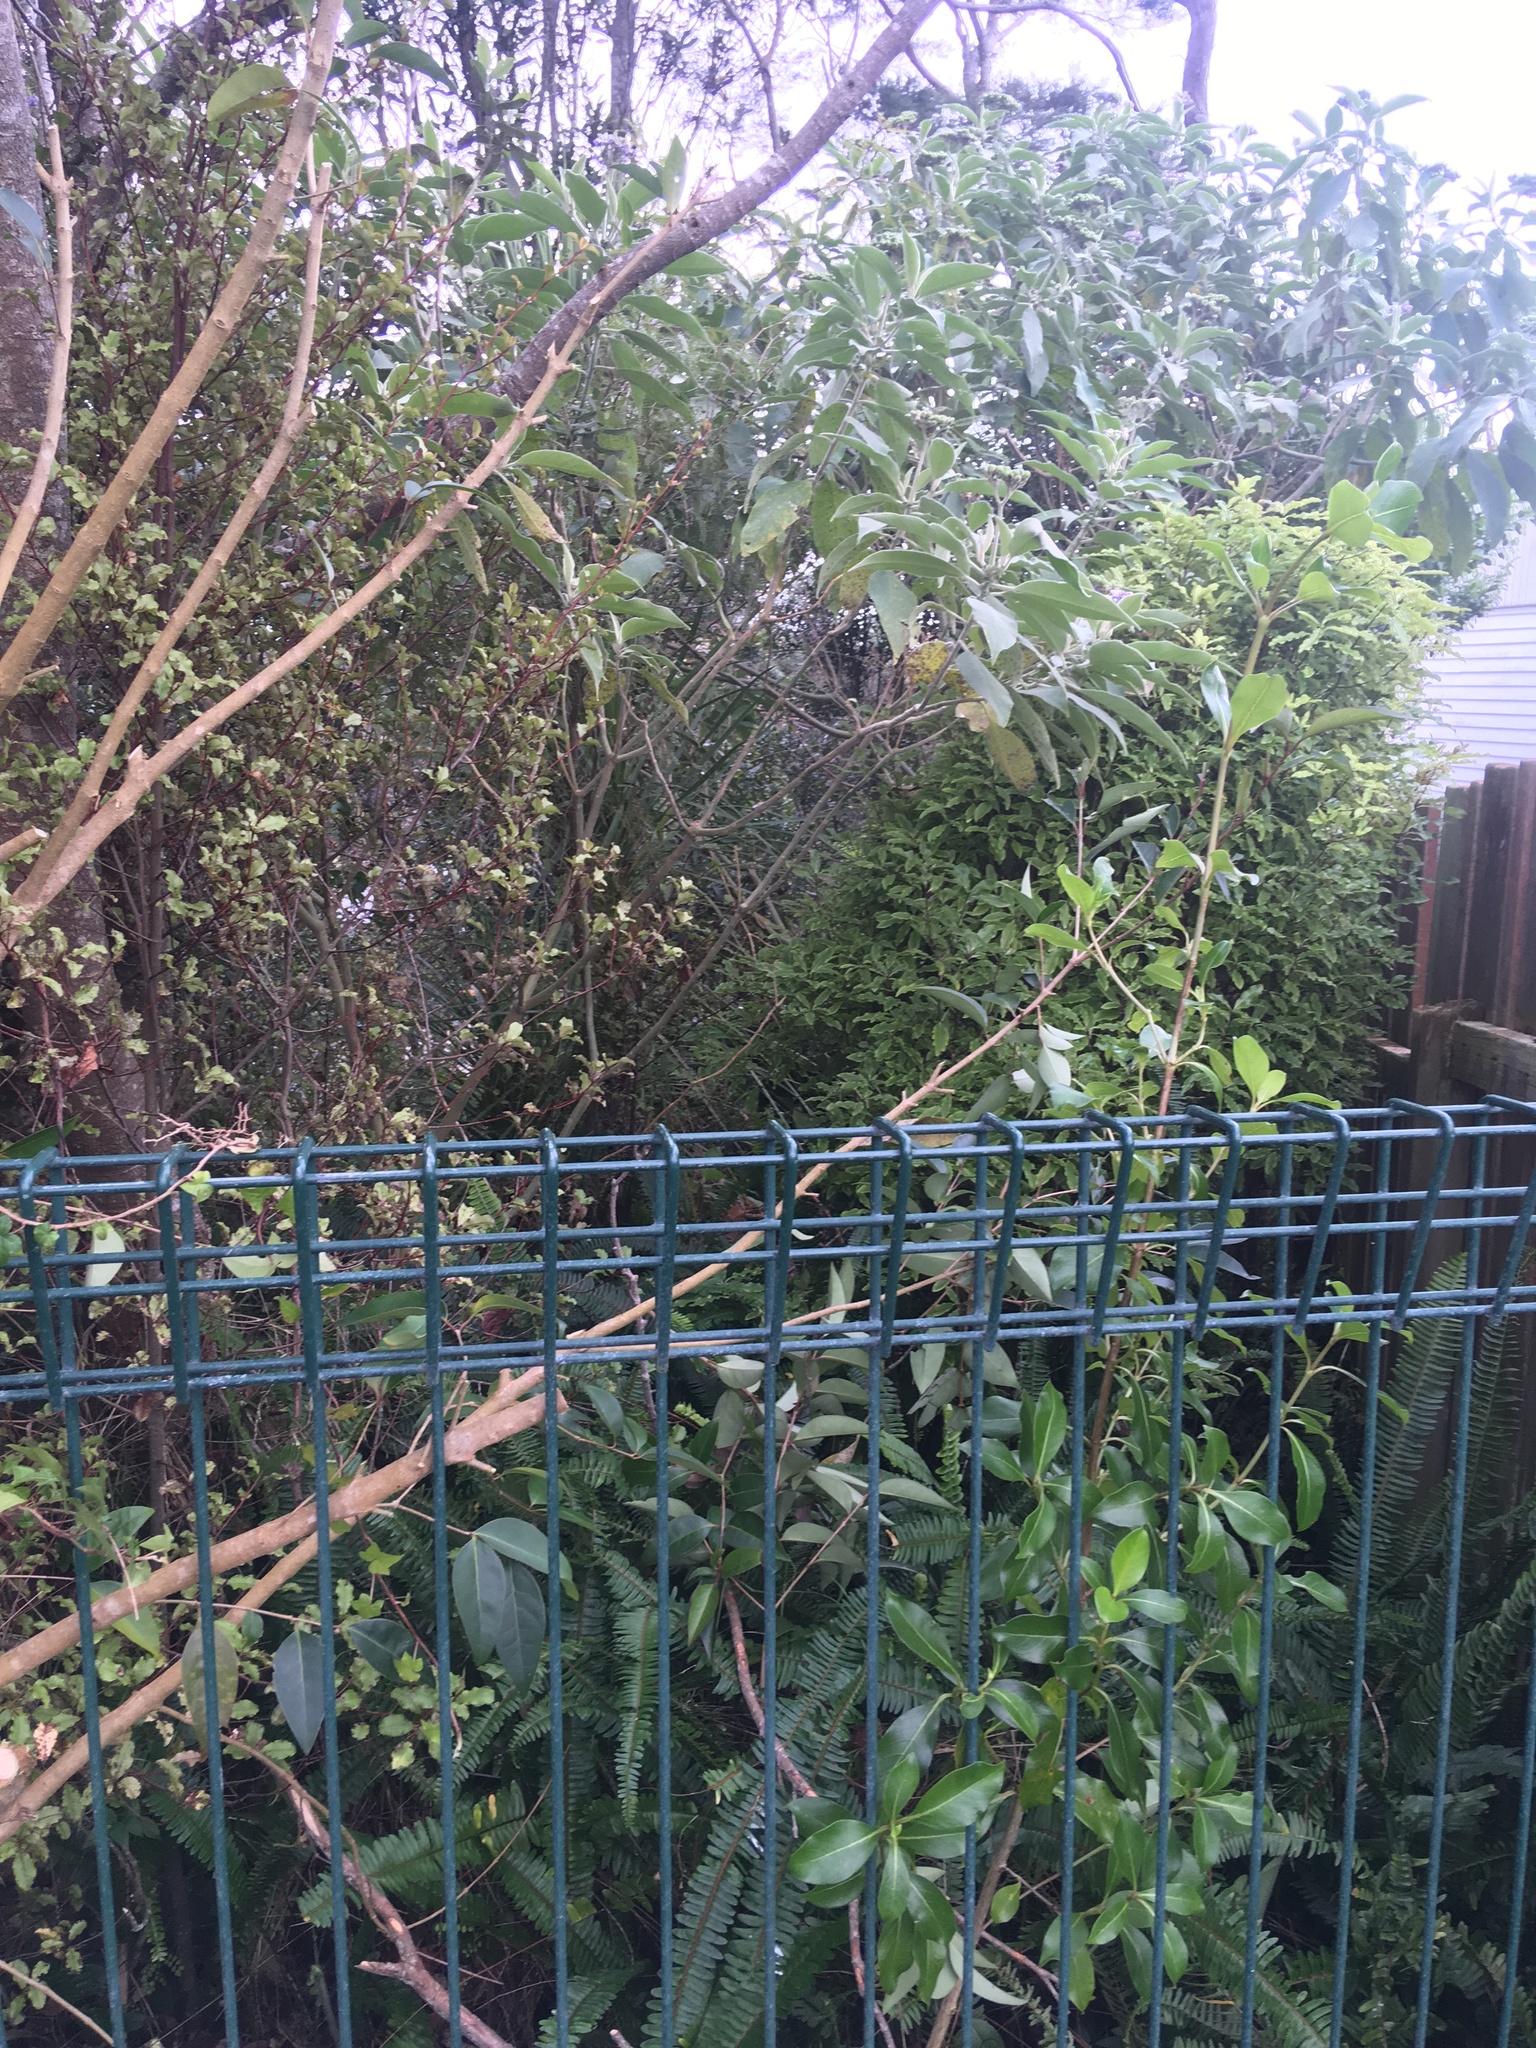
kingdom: Plantae
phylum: Tracheophyta
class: Magnoliopsida
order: Solanales
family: Solanaceae
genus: Solanum
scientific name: Solanum mauritianum
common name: Earleaf nightshade
